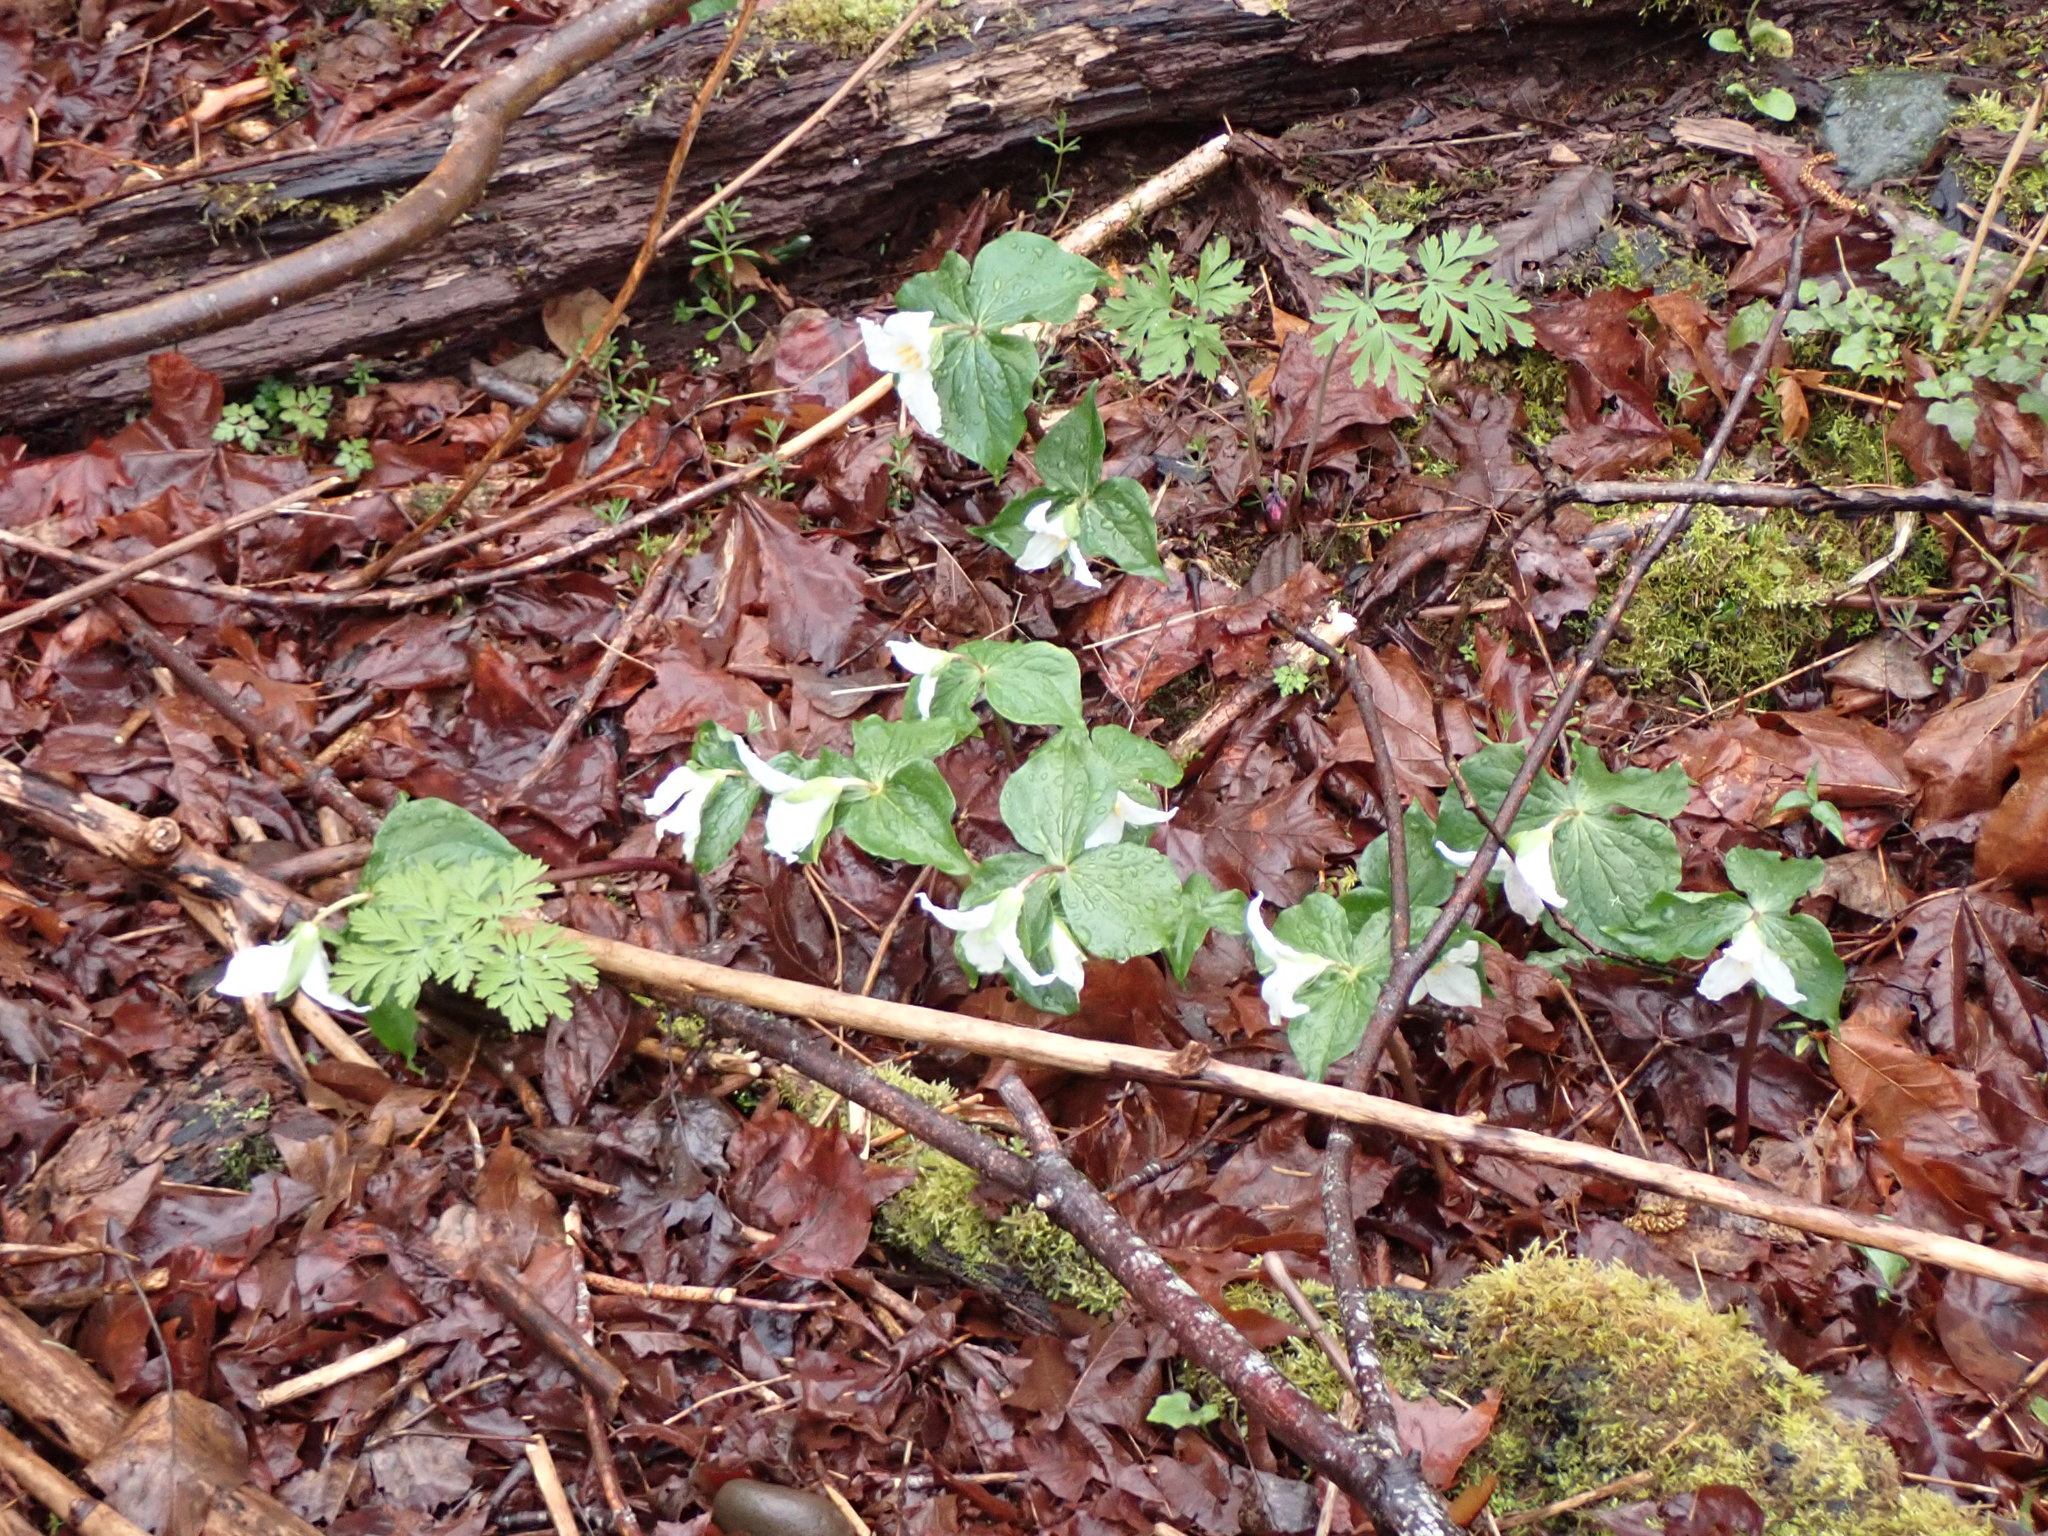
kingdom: Plantae
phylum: Tracheophyta
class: Liliopsida
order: Liliales
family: Melanthiaceae
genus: Trillium
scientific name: Trillium ovatum
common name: Pacific trillium
